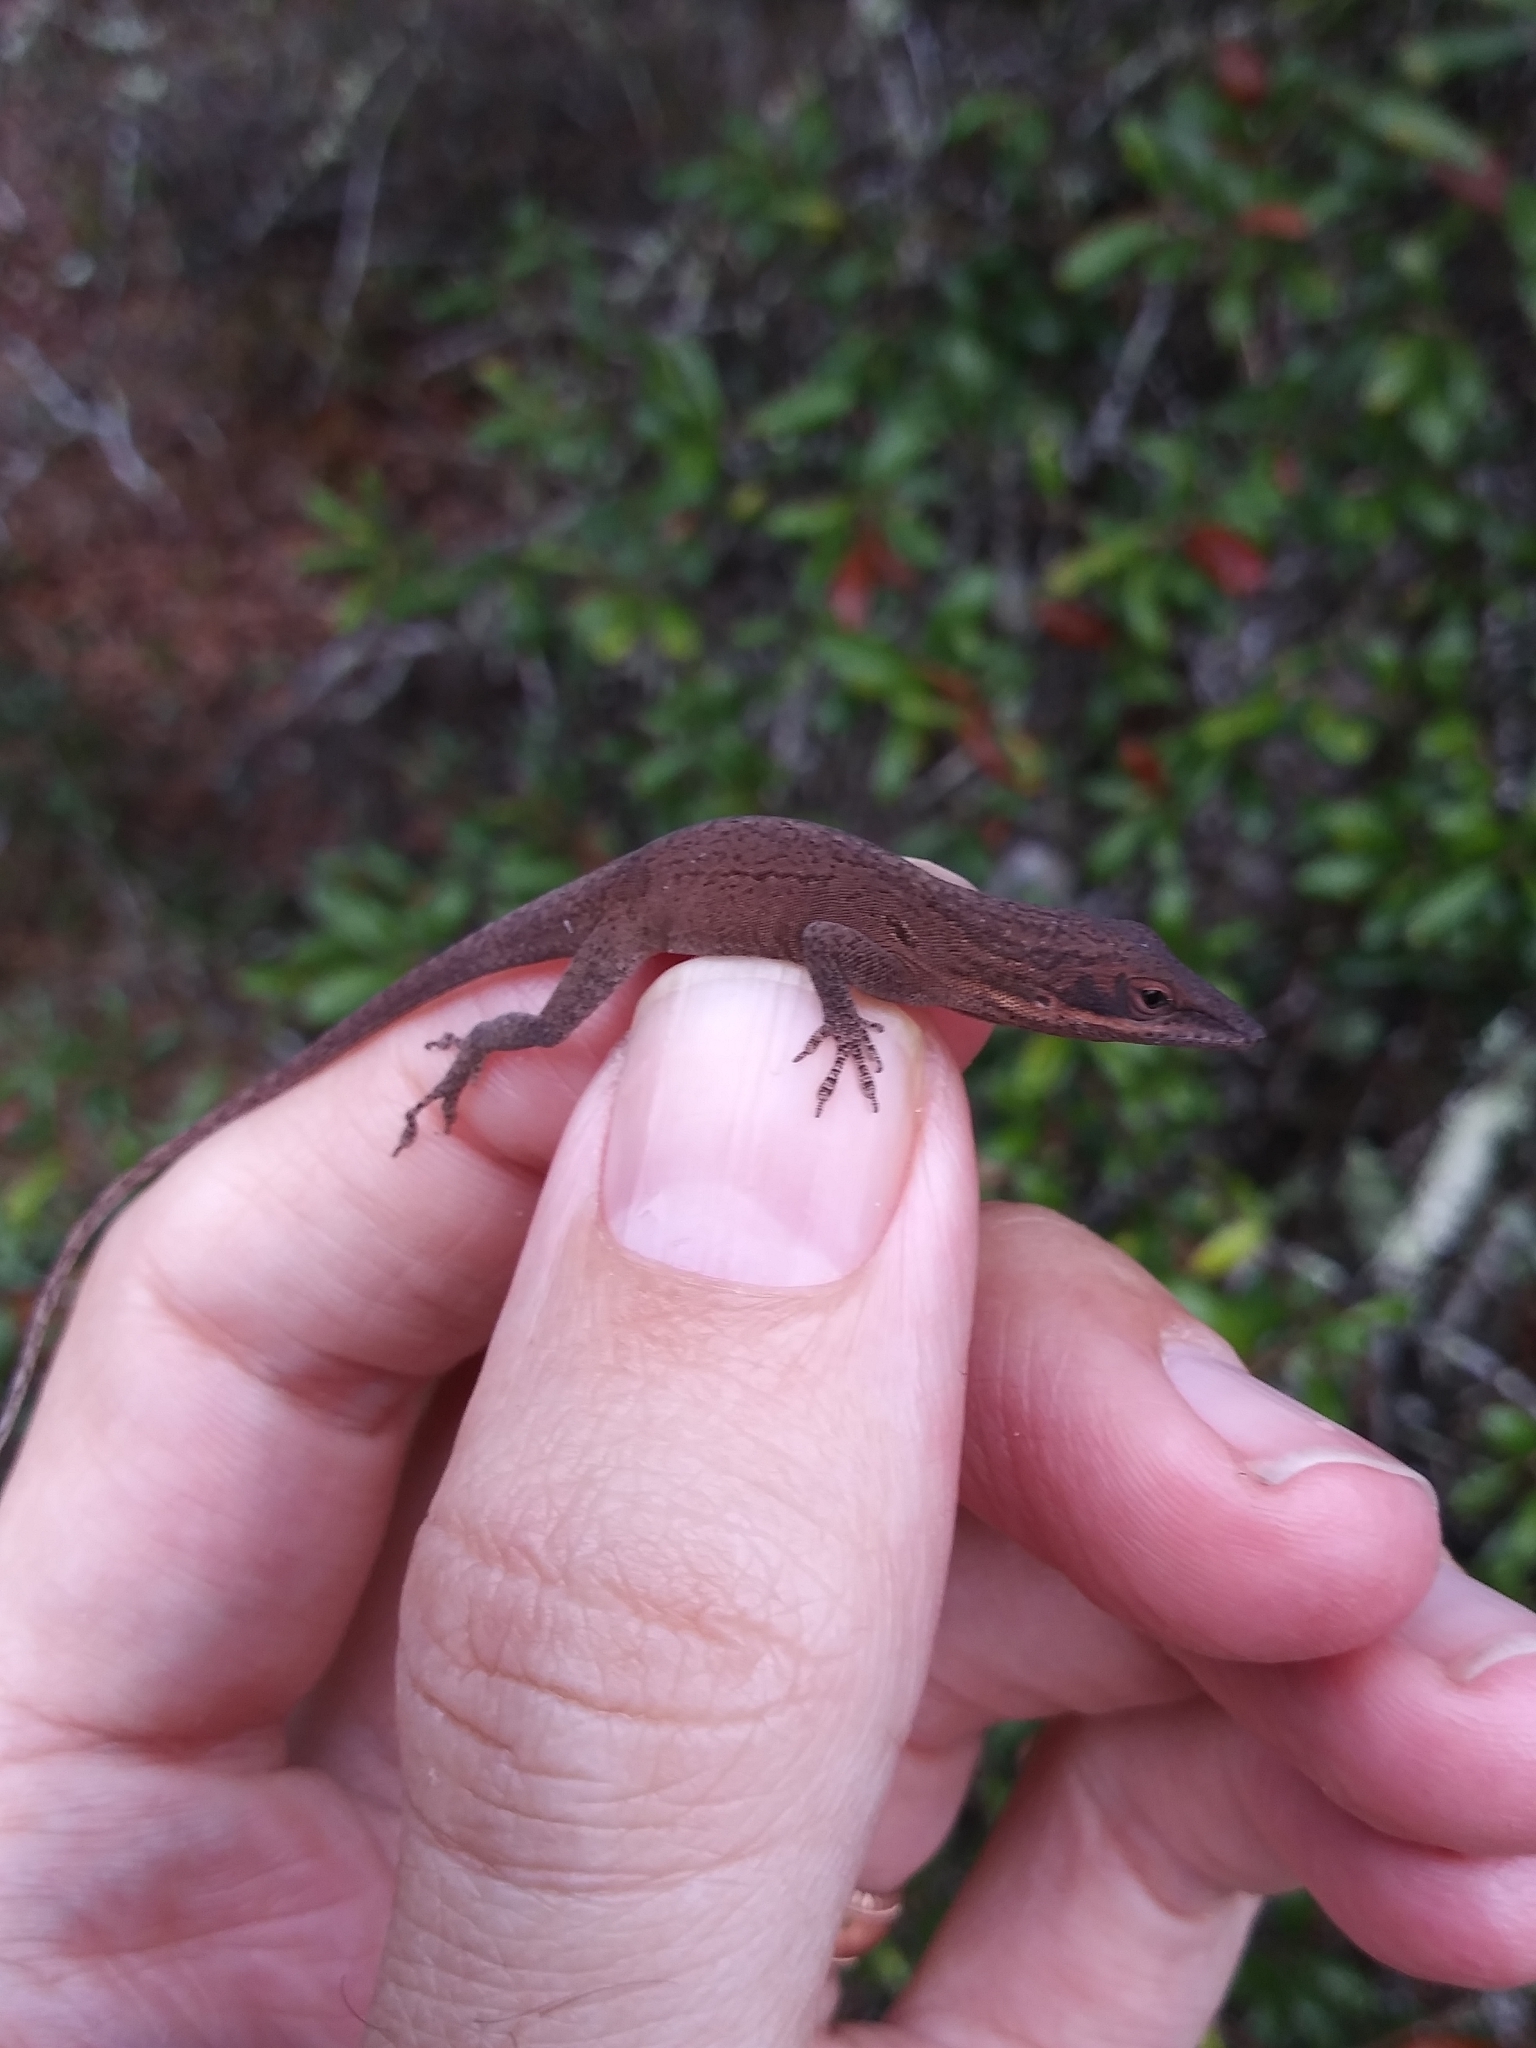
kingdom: Animalia
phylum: Chordata
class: Squamata
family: Dactyloidae
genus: Anolis
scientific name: Anolis carolinensis
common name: Green anole
